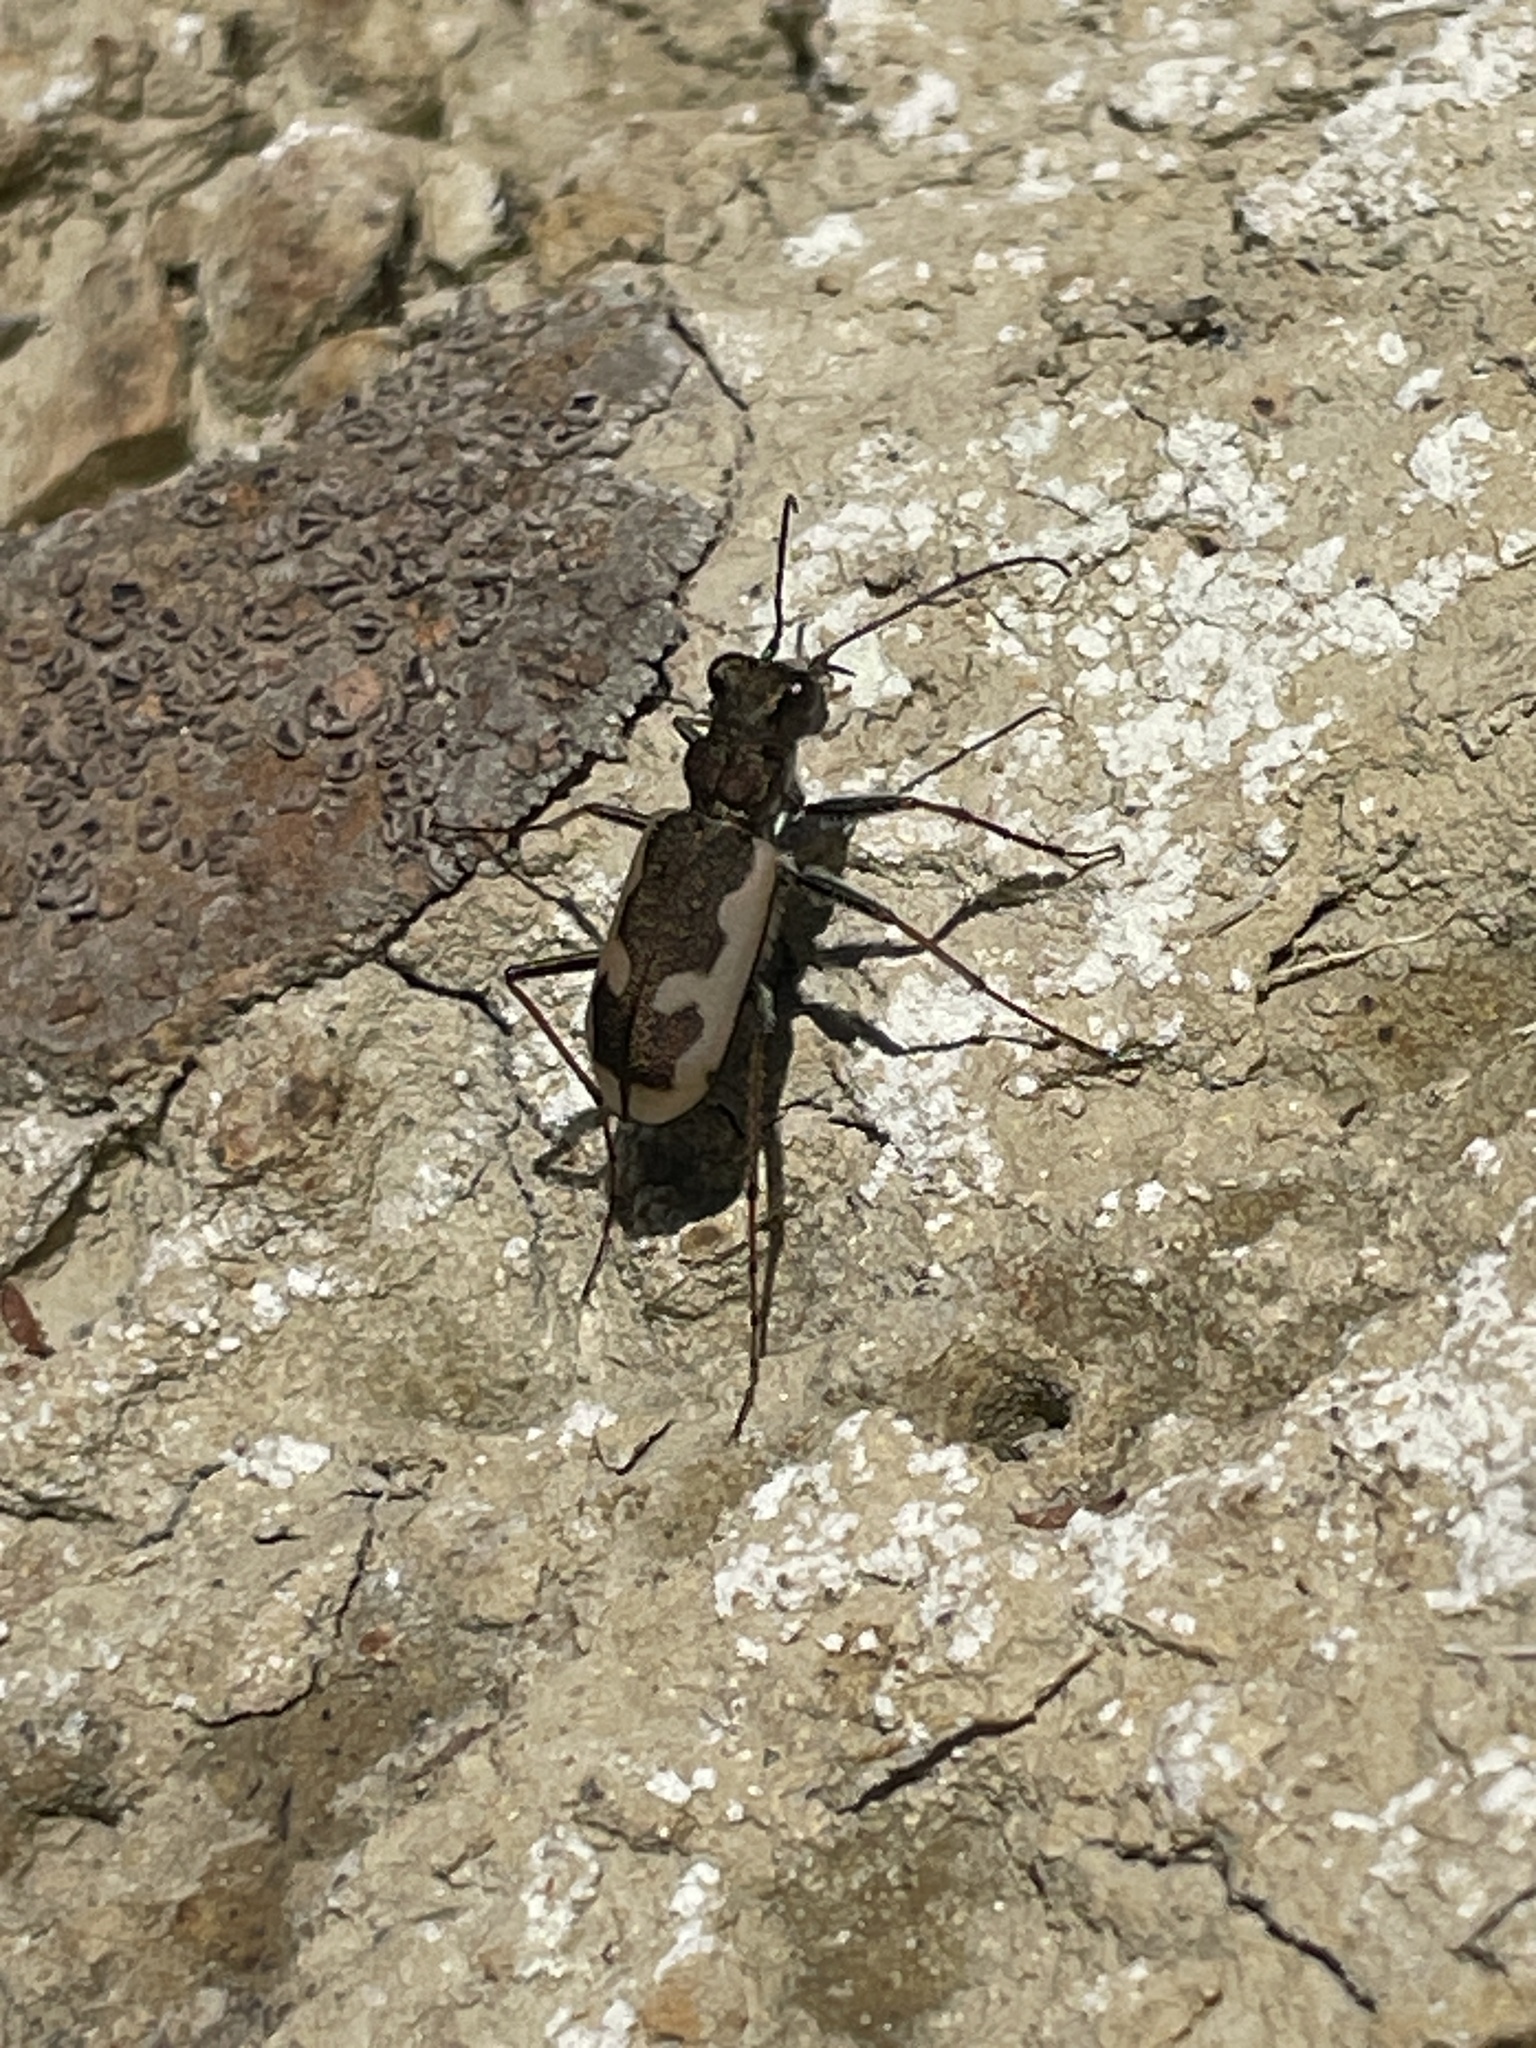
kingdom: Animalia
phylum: Arthropoda
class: Insecta
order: Coleoptera
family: Carabidae
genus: Neocicindela
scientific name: Neocicindela latecincta
